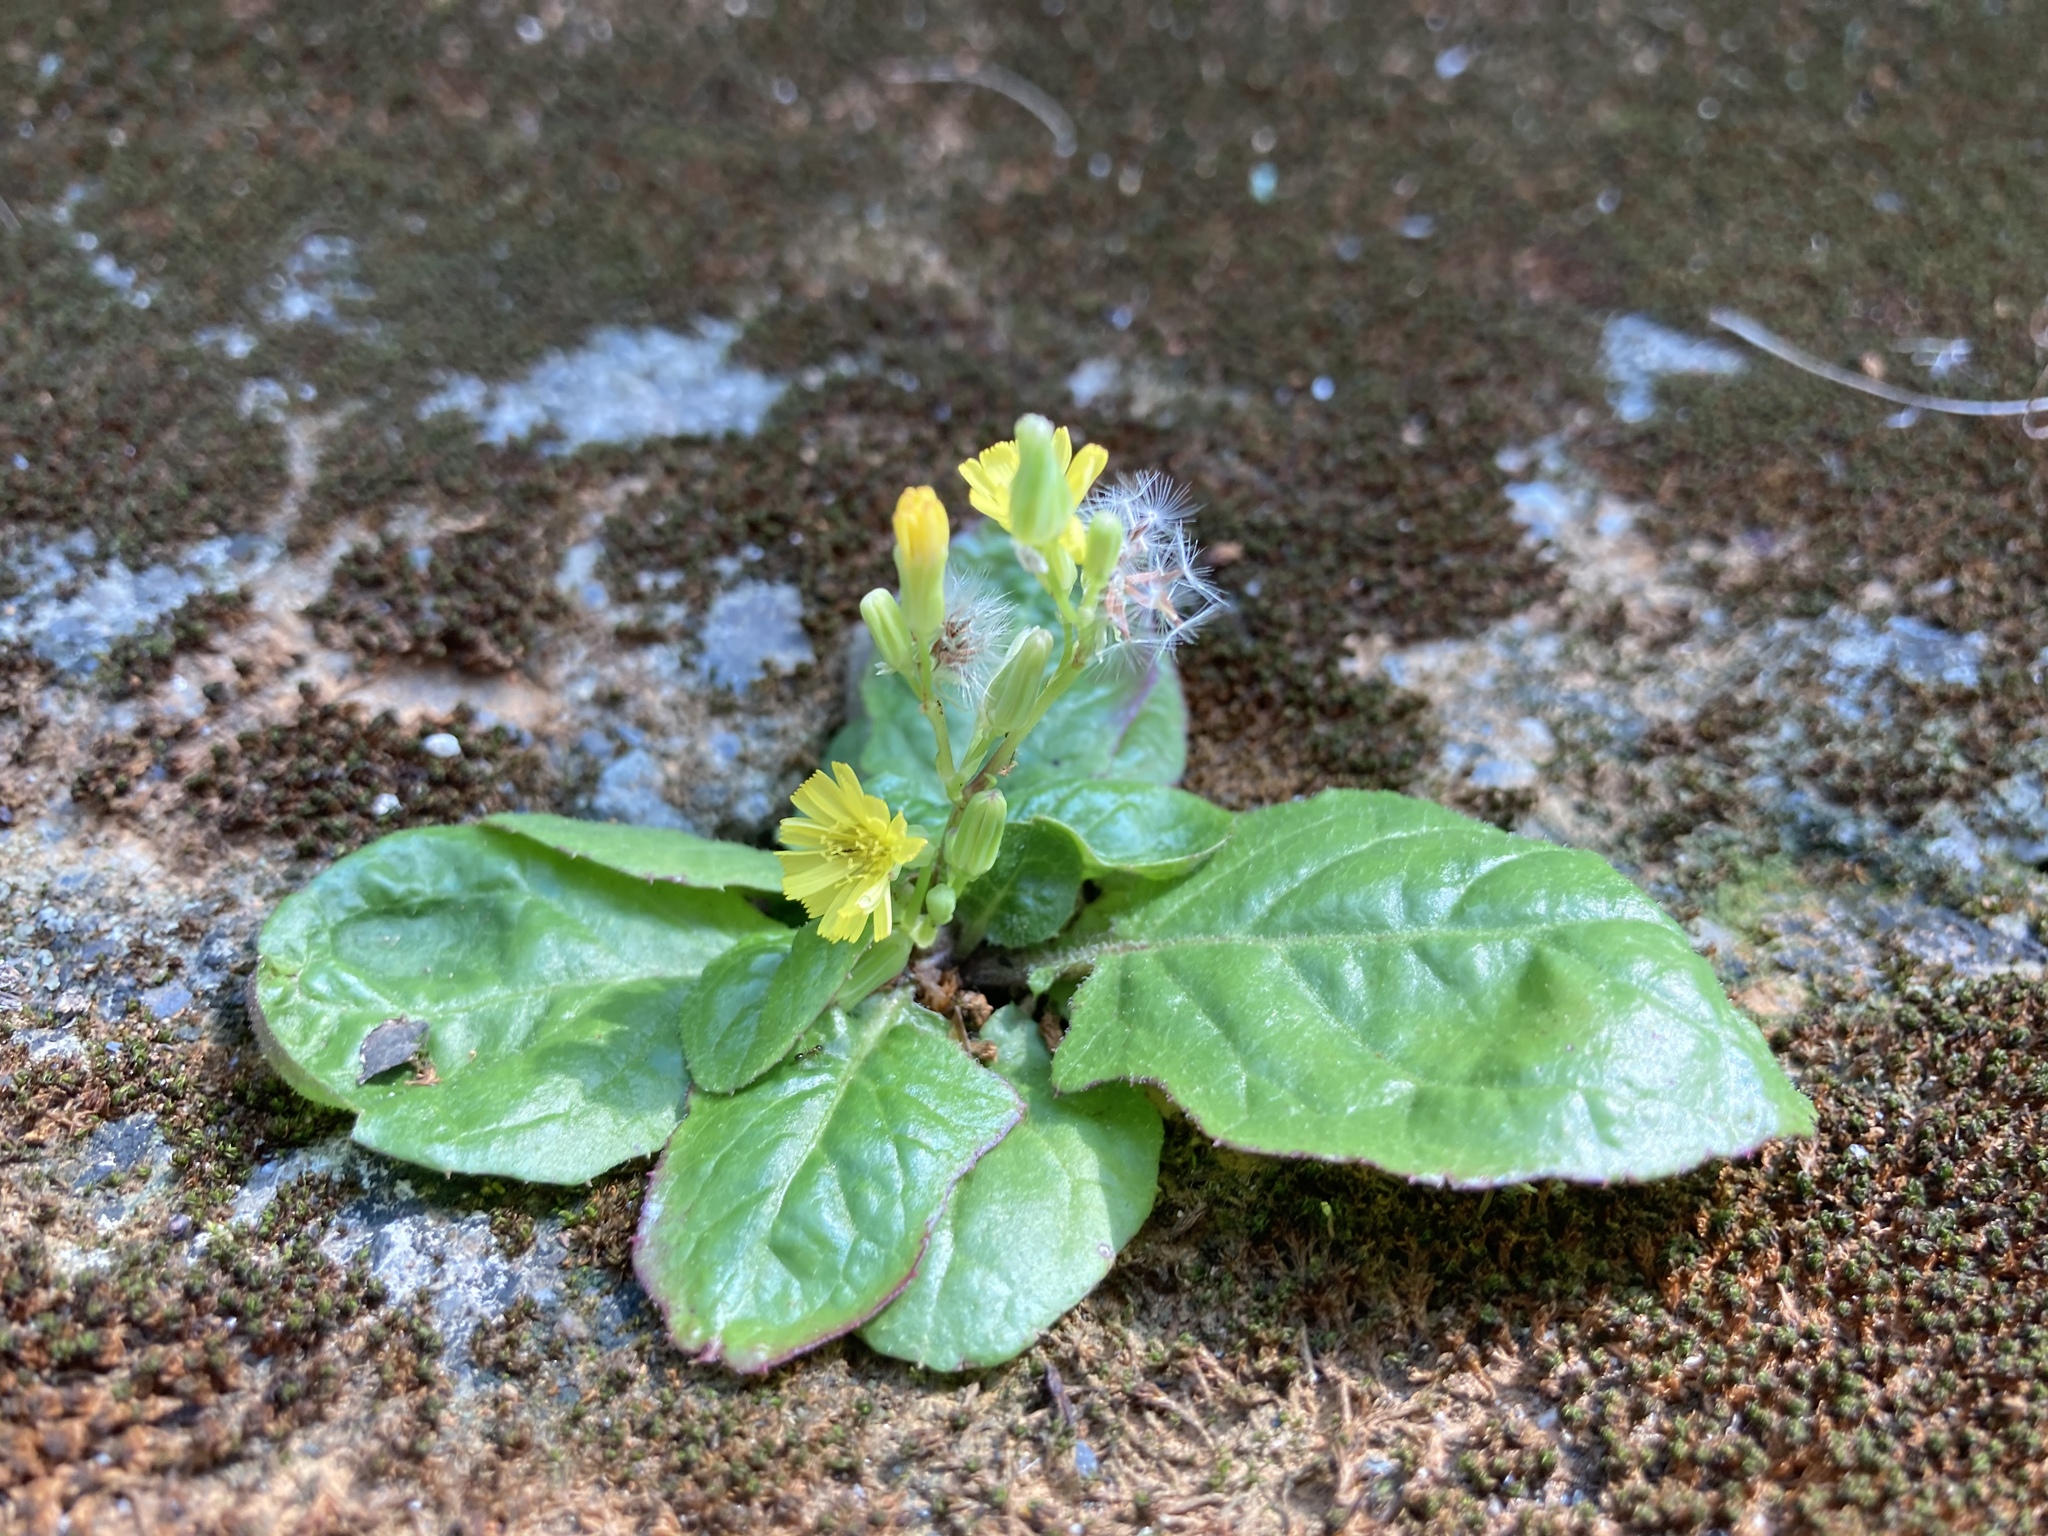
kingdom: Plantae
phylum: Tracheophyta
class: Magnoliopsida
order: Asterales
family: Asteraceae
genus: Youngia
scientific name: Youngia japonica
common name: Oriental false hawksbeard
